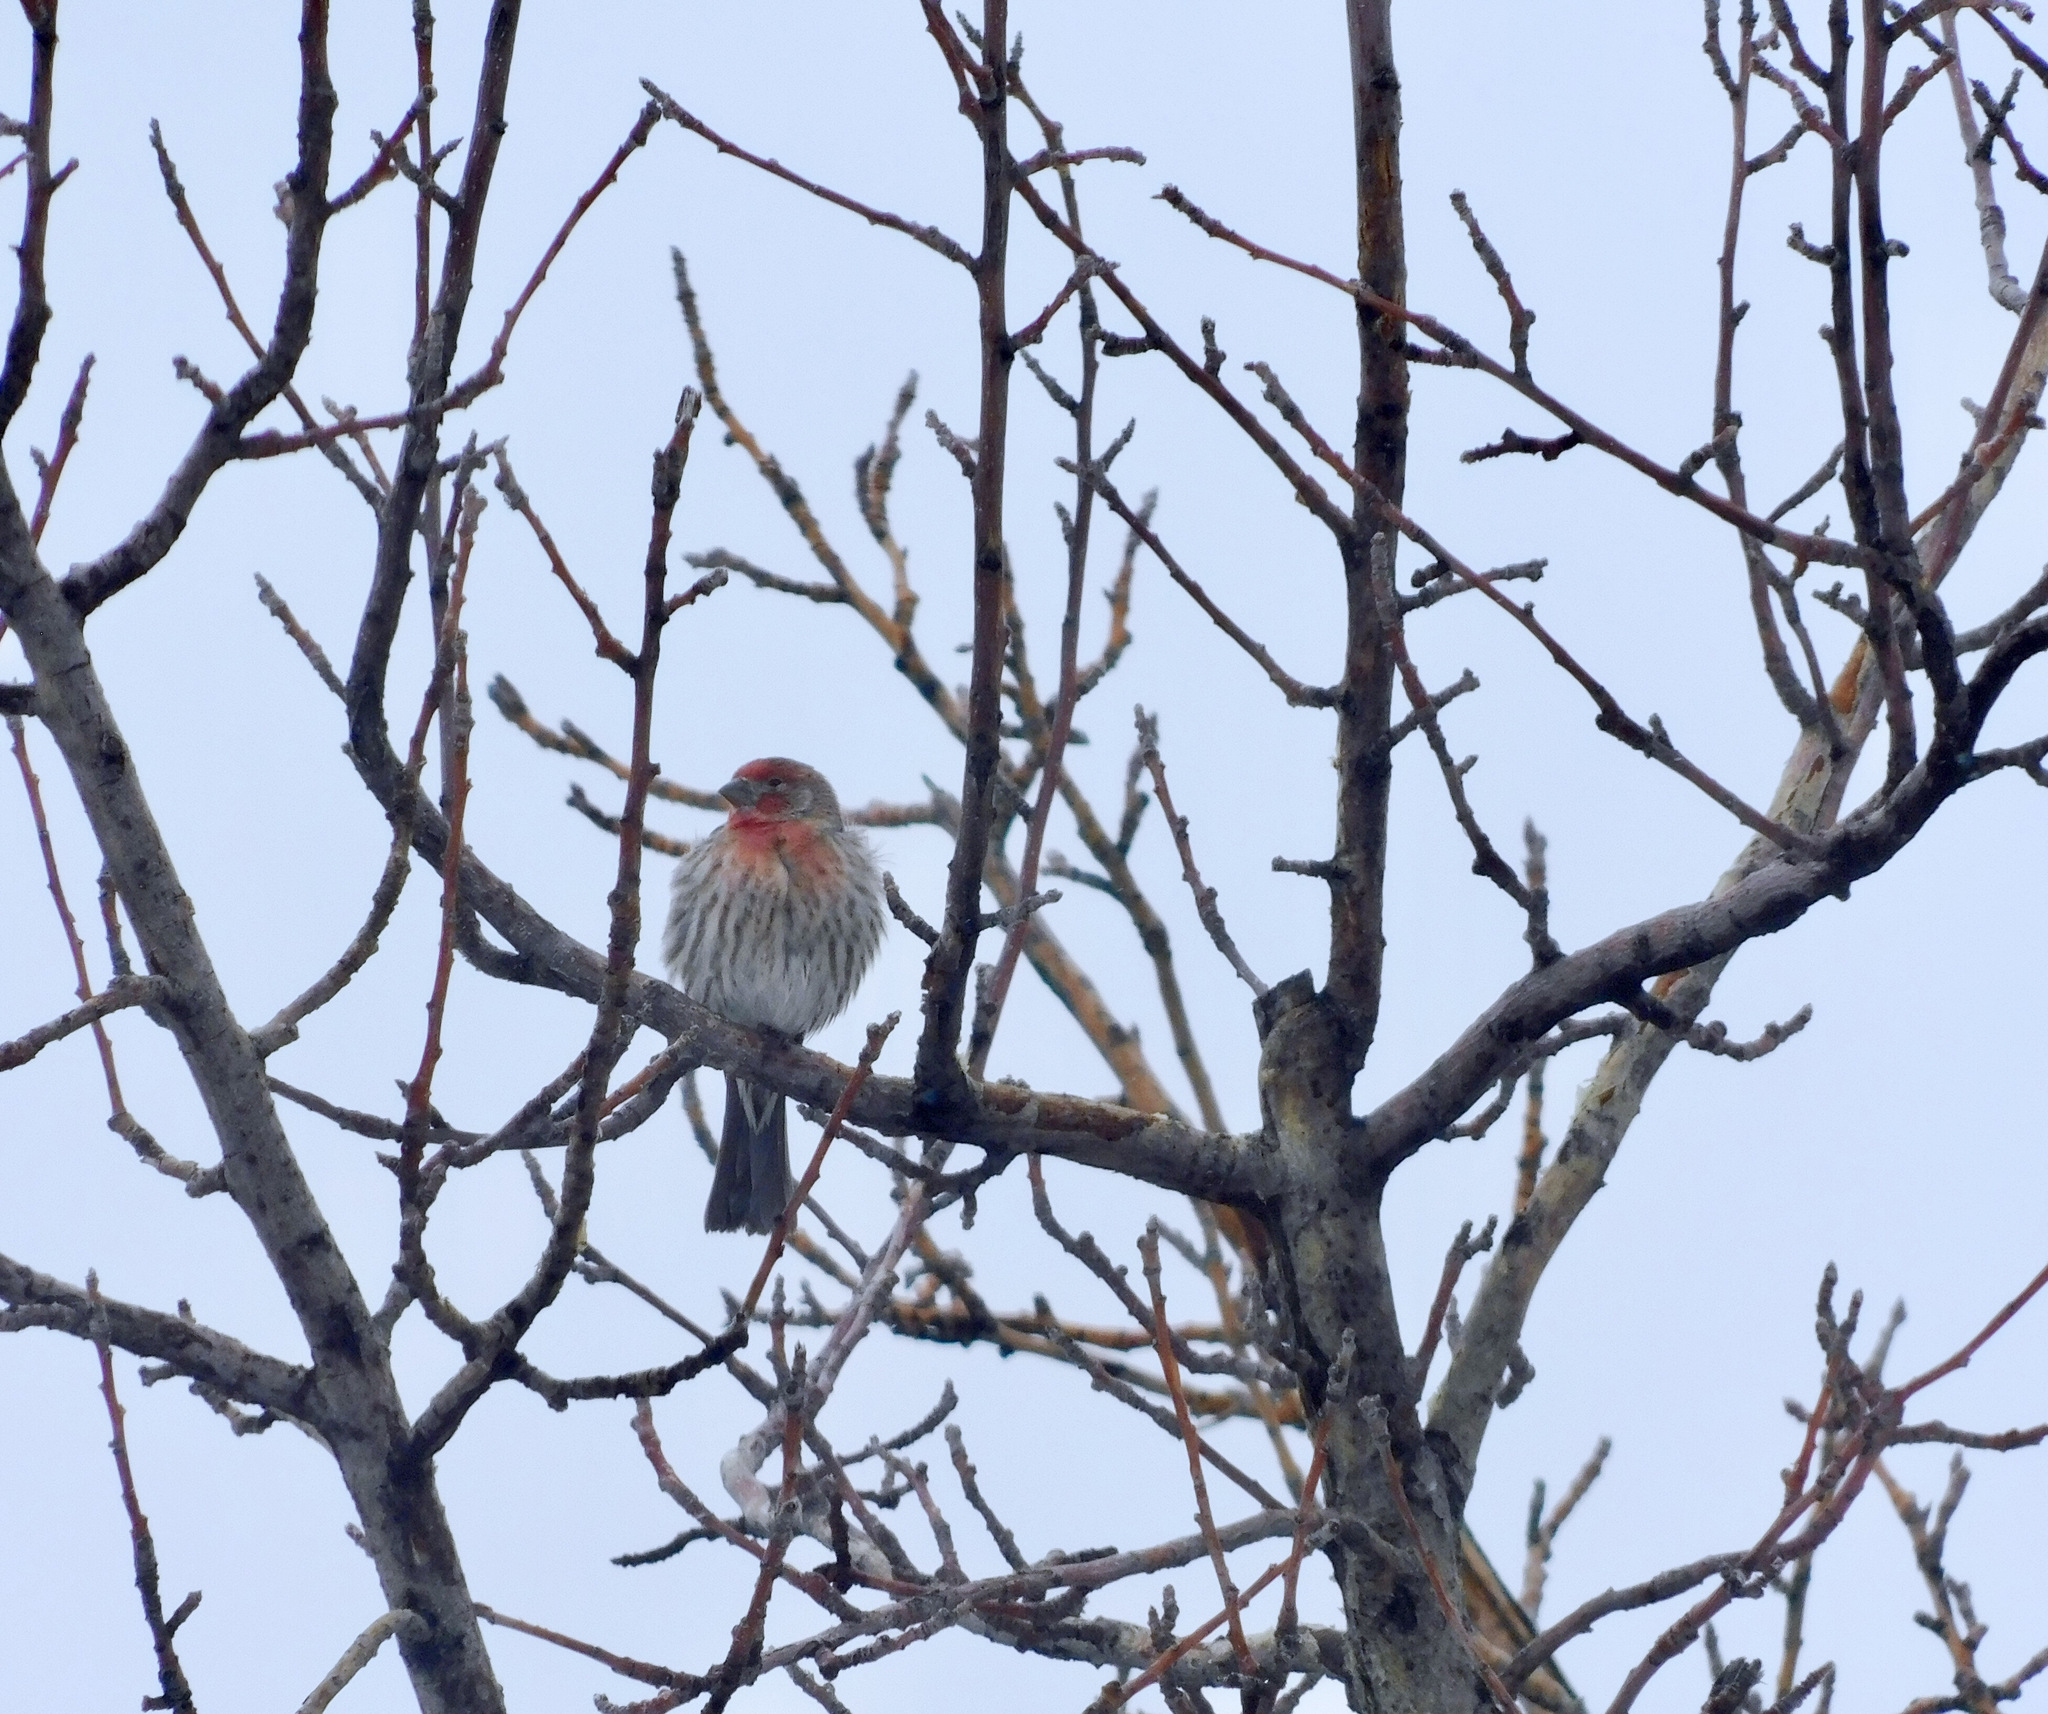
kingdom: Animalia
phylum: Chordata
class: Aves
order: Passeriformes
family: Fringillidae
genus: Haemorhous
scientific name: Haemorhous mexicanus
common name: House finch
